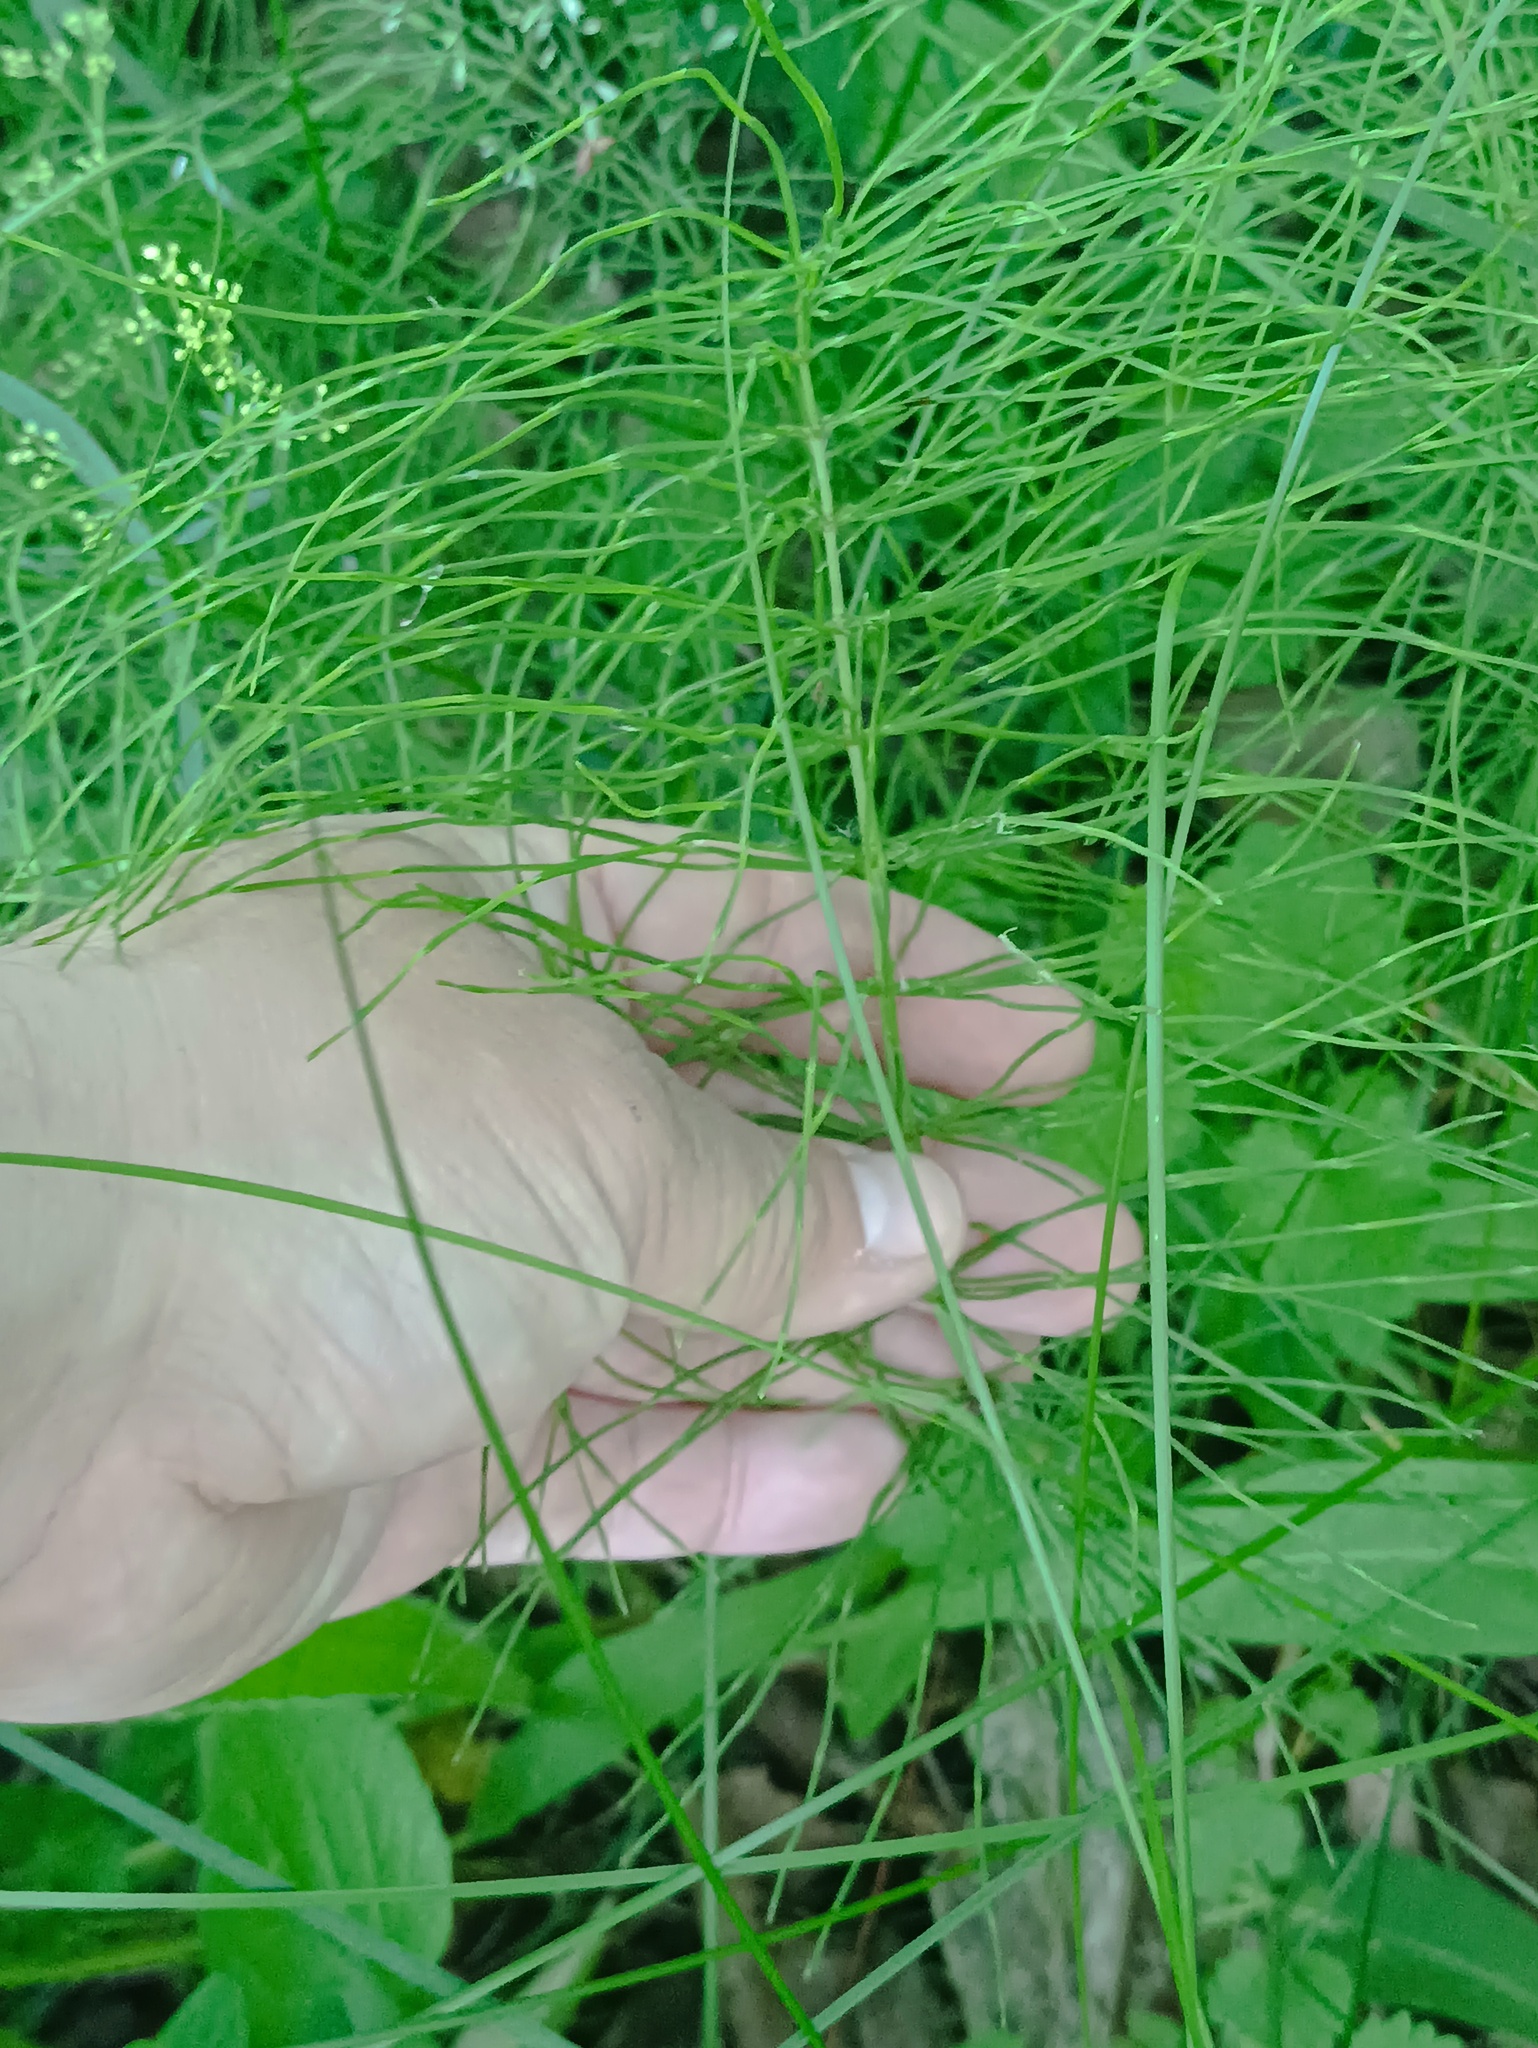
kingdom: Plantae
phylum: Tracheophyta
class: Polypodiopsida
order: Equisetales
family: Equisetaceae
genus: Equisetum
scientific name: Equisetum pratense
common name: Meadow horsetail
